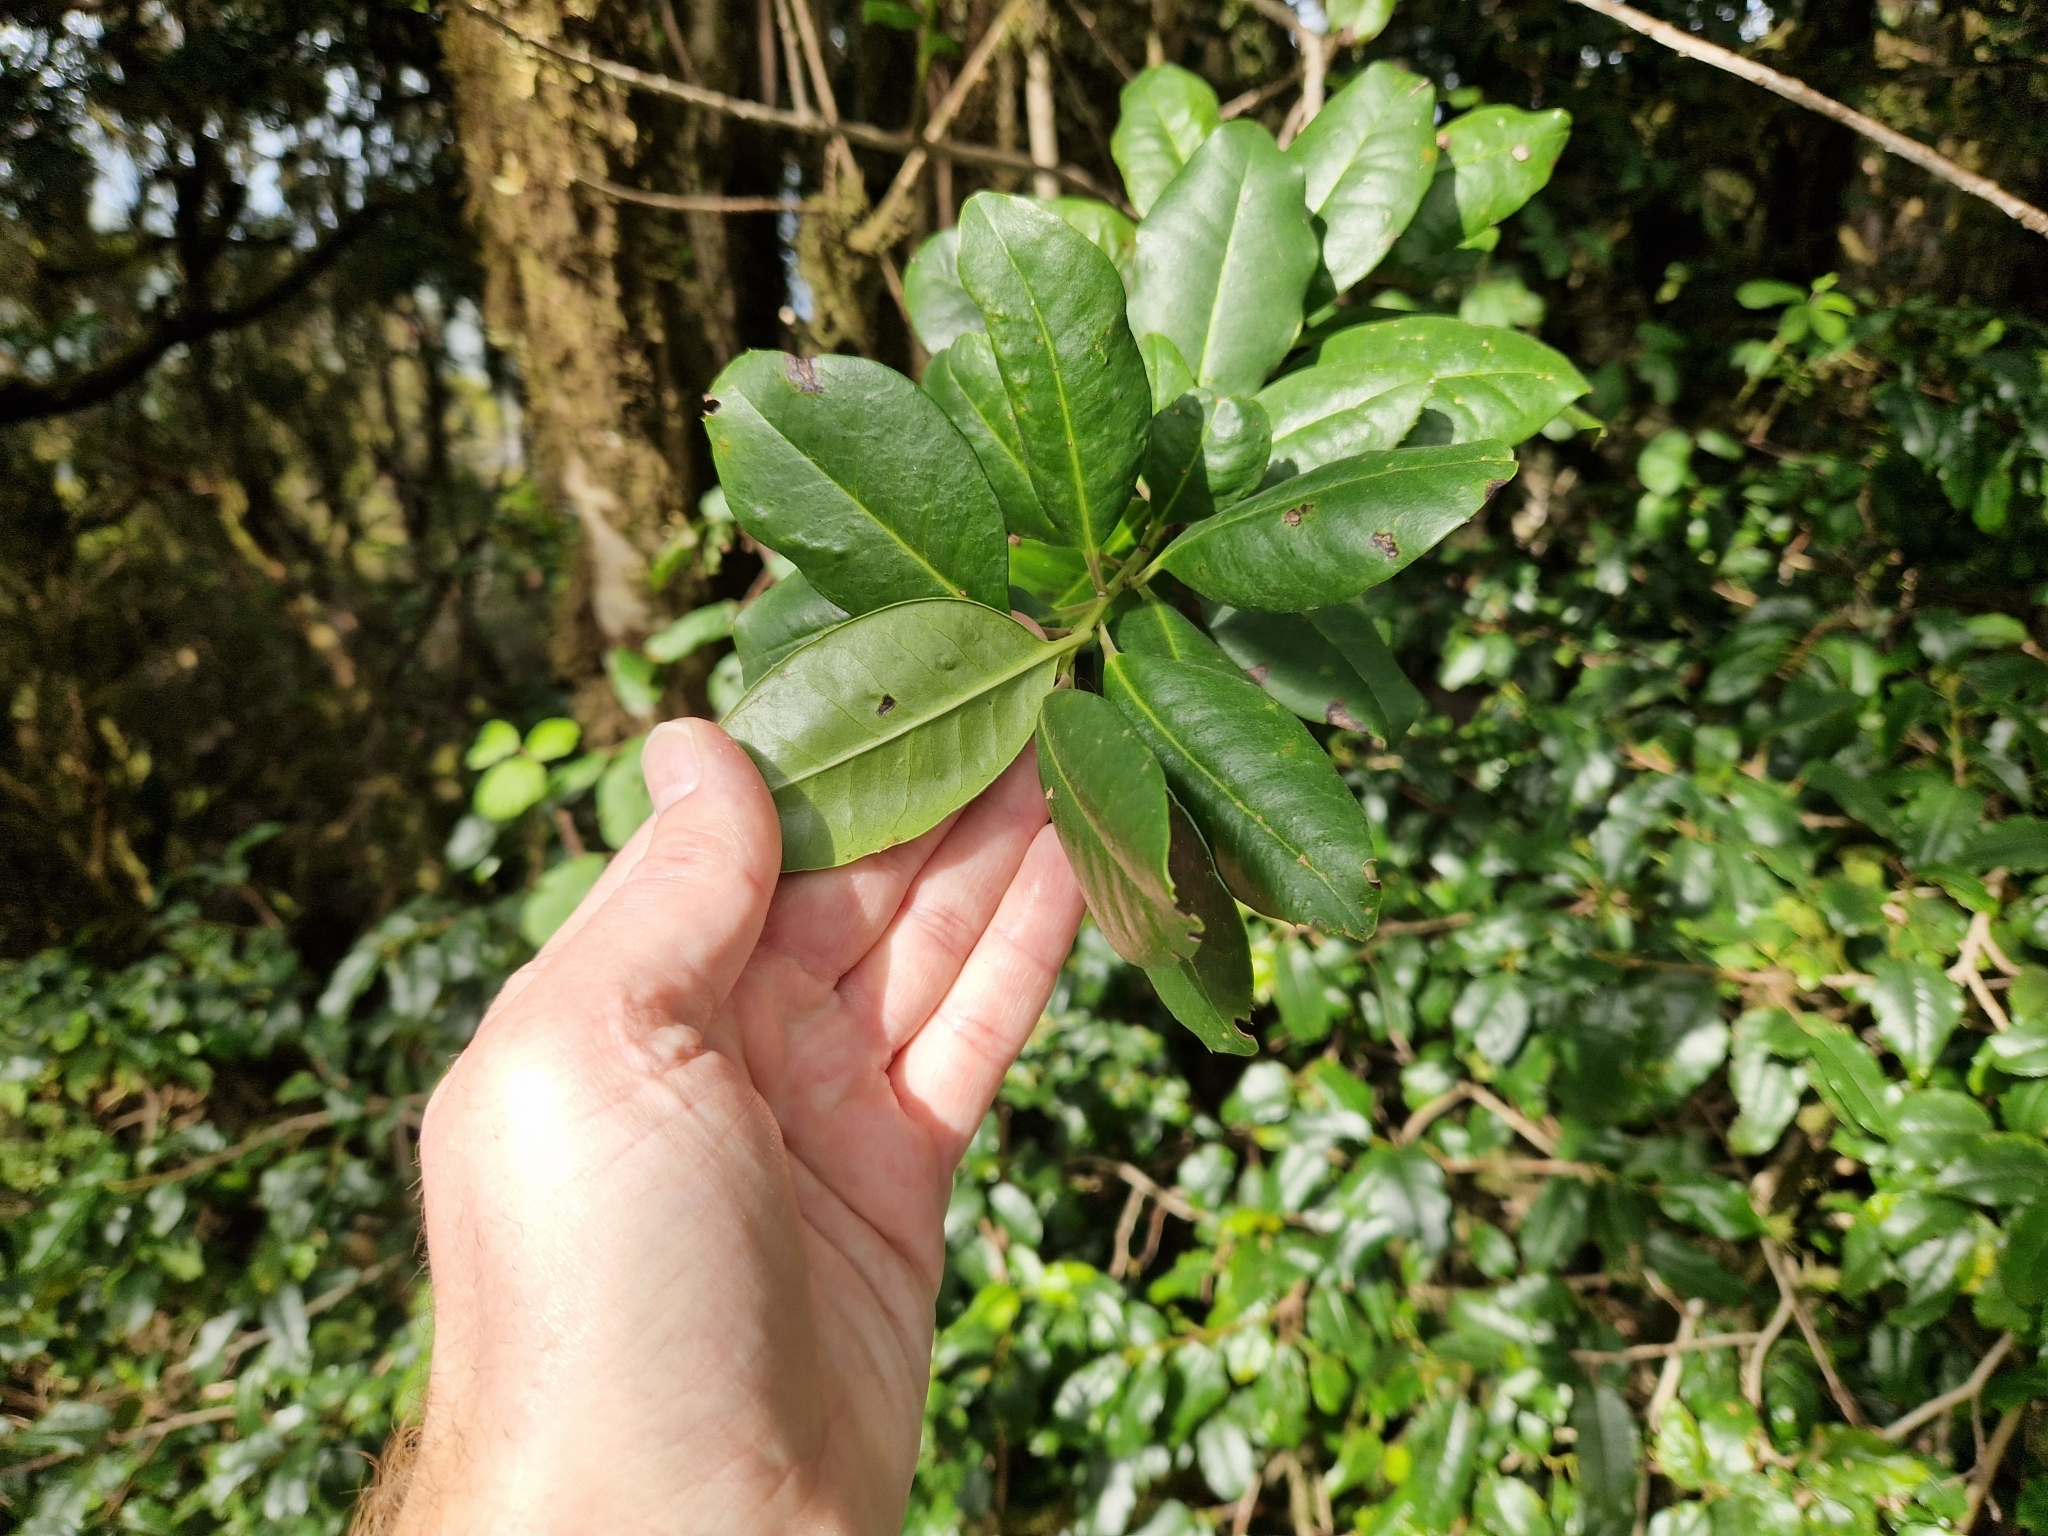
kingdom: Plantae
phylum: Tracheophyta
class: Magnoliopsida
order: Aquifoliales
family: Aquifoliaceae
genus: Ilex
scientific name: Ilex canariensis
